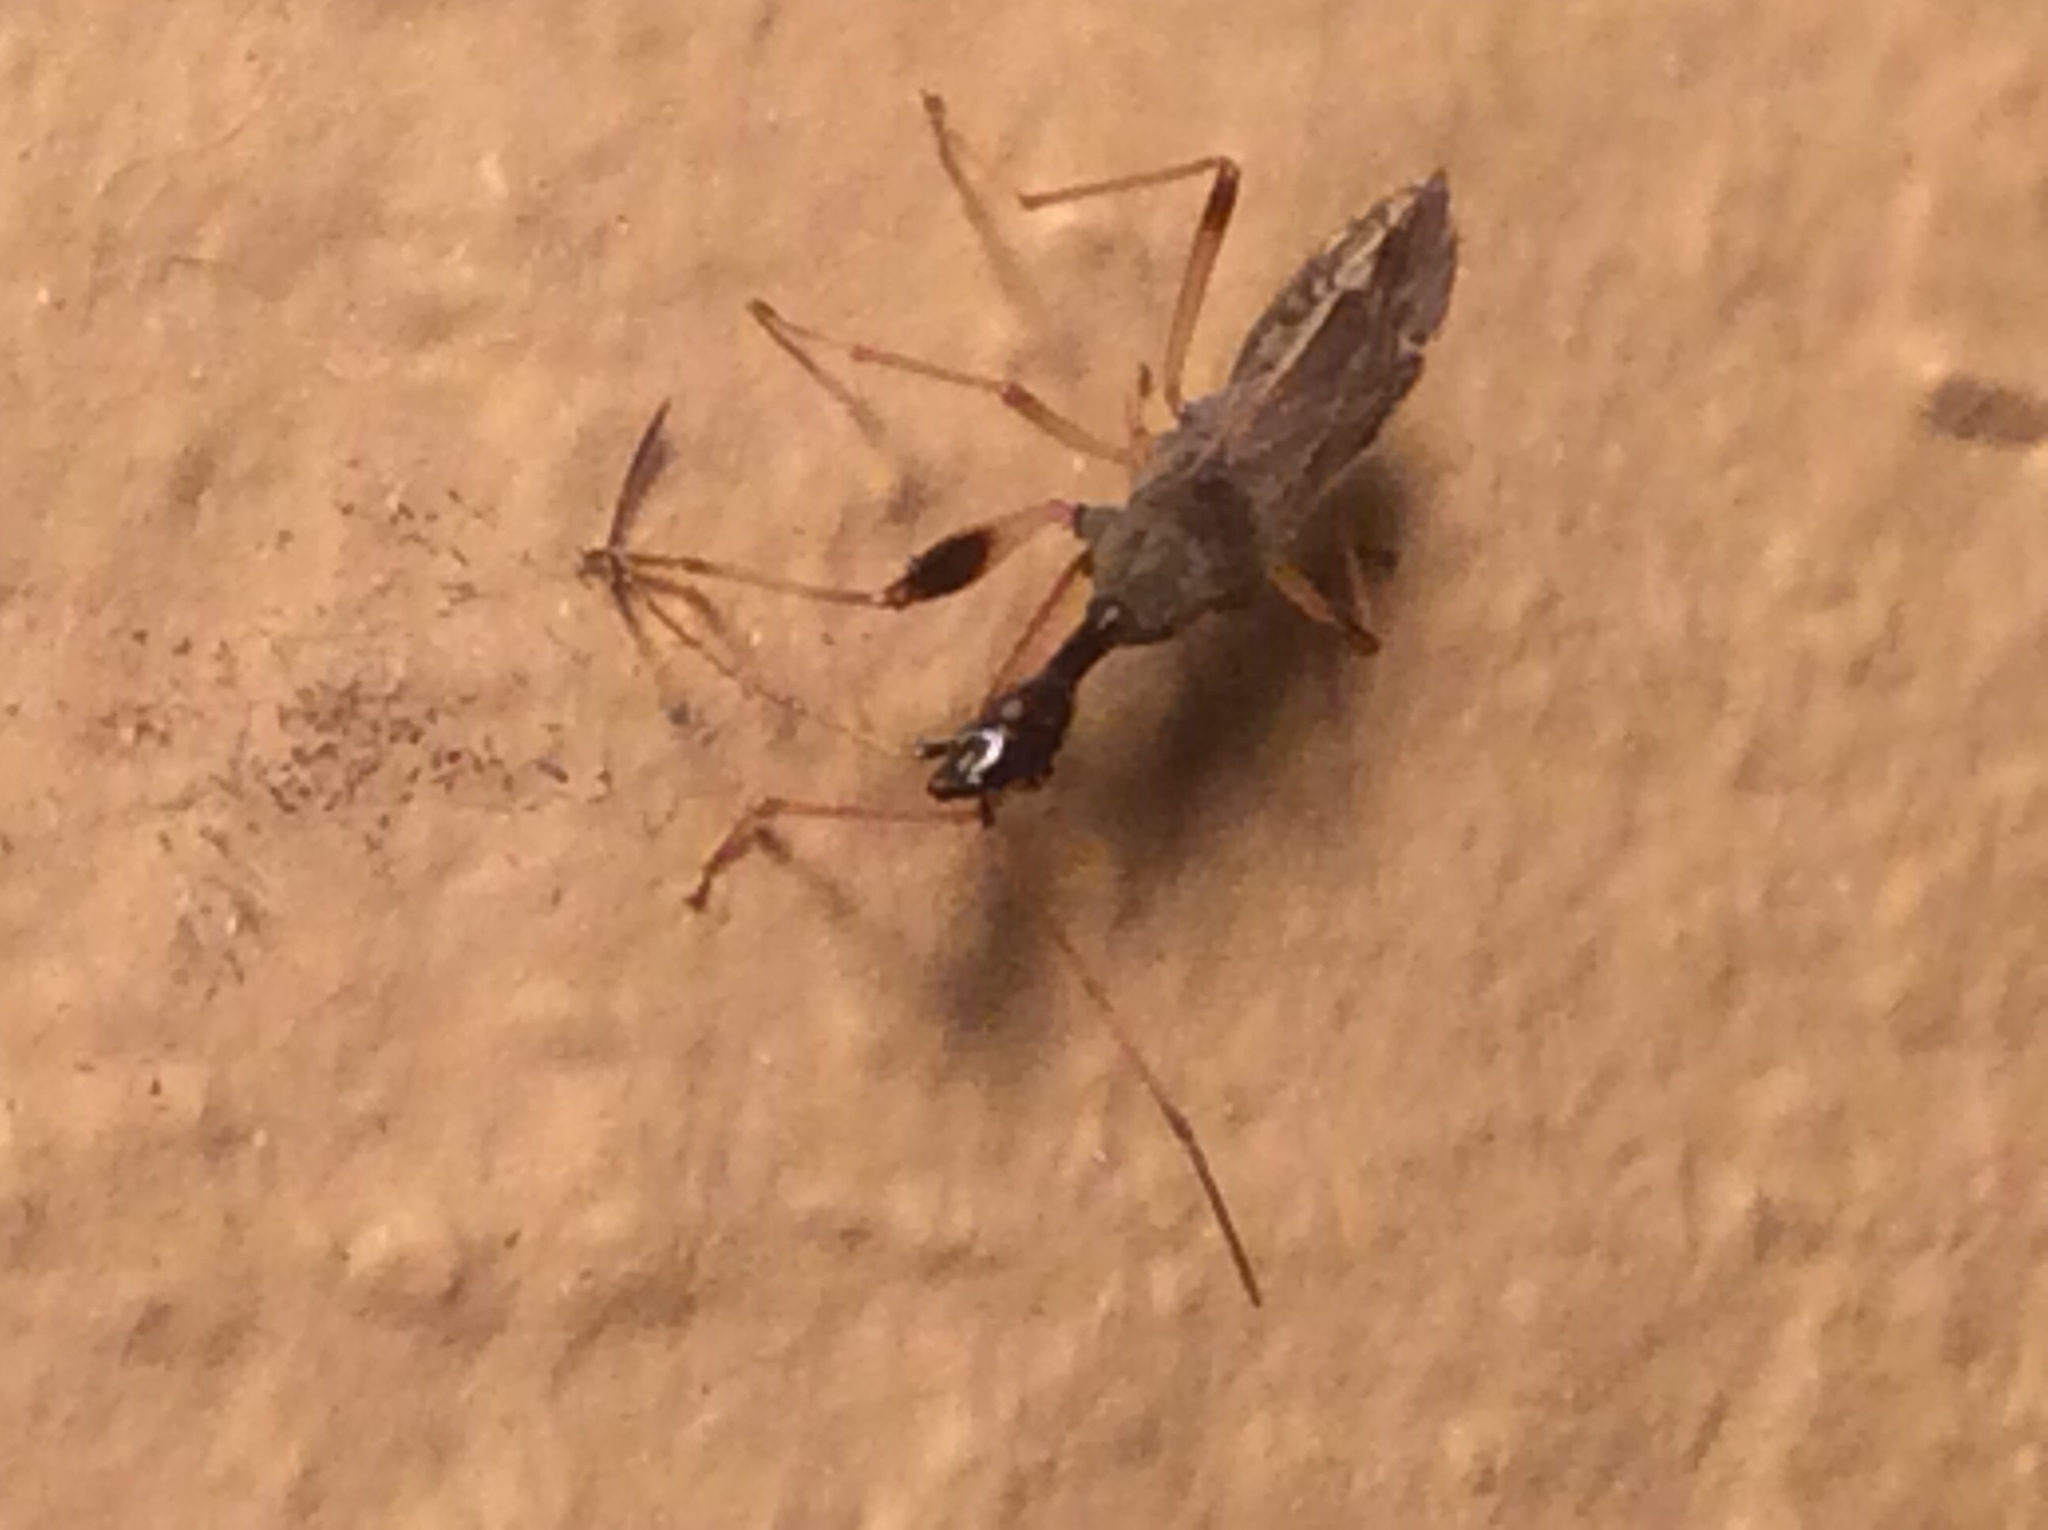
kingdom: Animalia
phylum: Arthropoda
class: Insecta
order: Hemiptera
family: Rhyparochromidae
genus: Myodocha
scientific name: Myodocha serripes
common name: Long-necked seed bug
